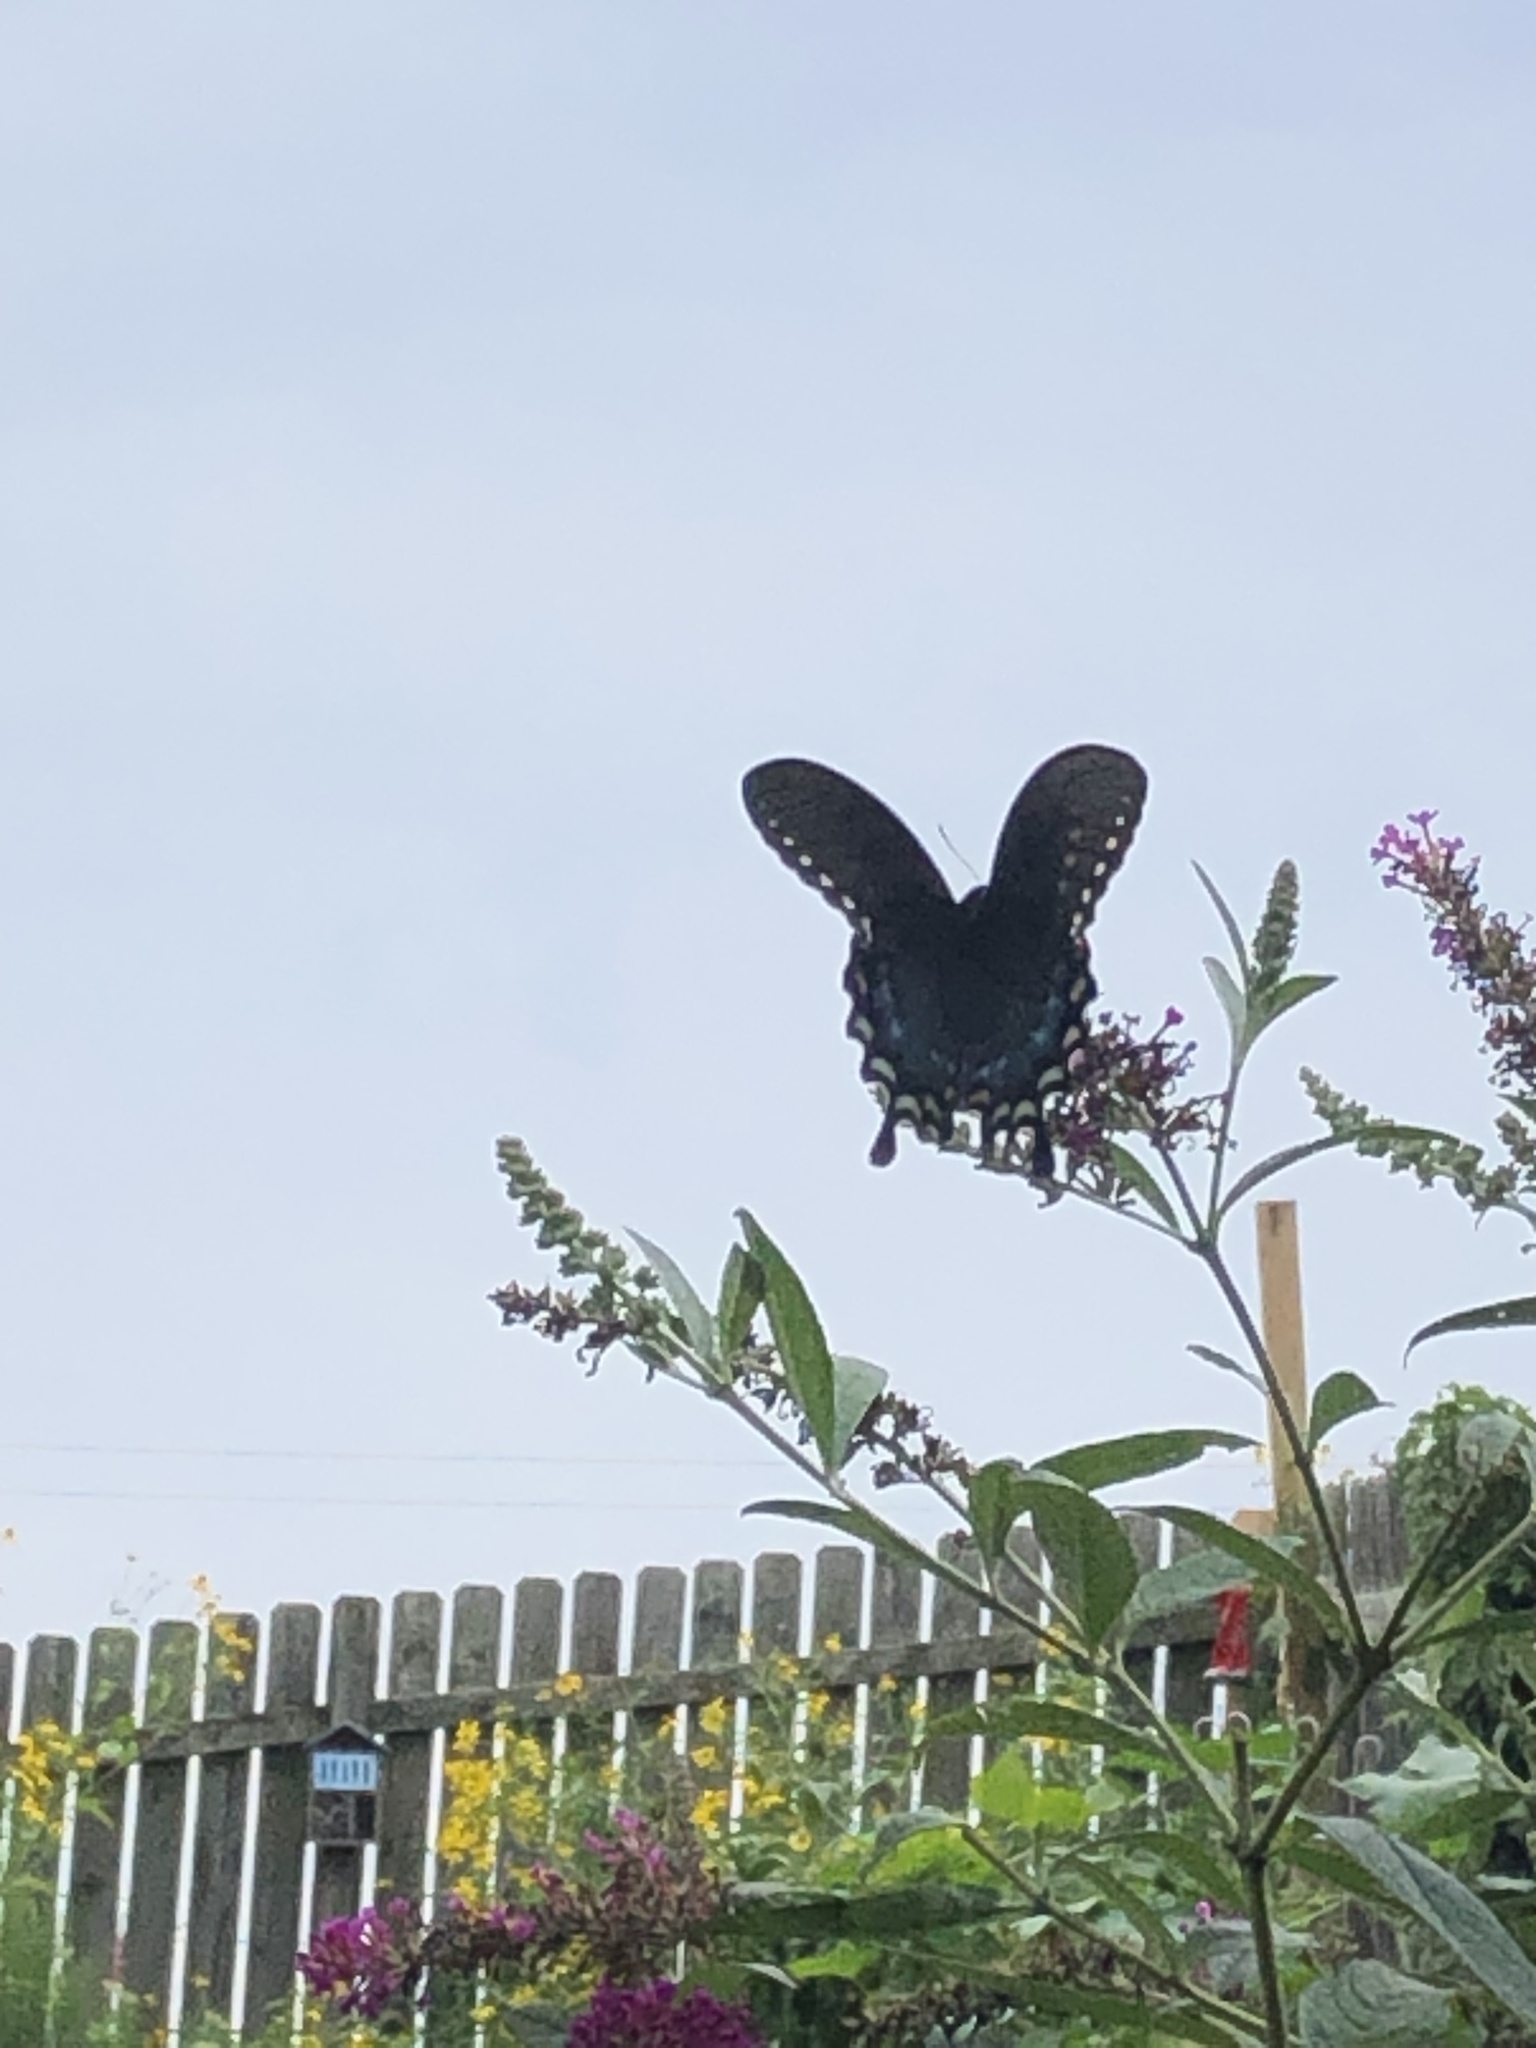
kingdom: Animalia
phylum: Arthropoda
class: Insecta
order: Lepidoptera
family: Papilionidae
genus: Papilio
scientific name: Papilio troilus
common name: Spicebush swallowtail
